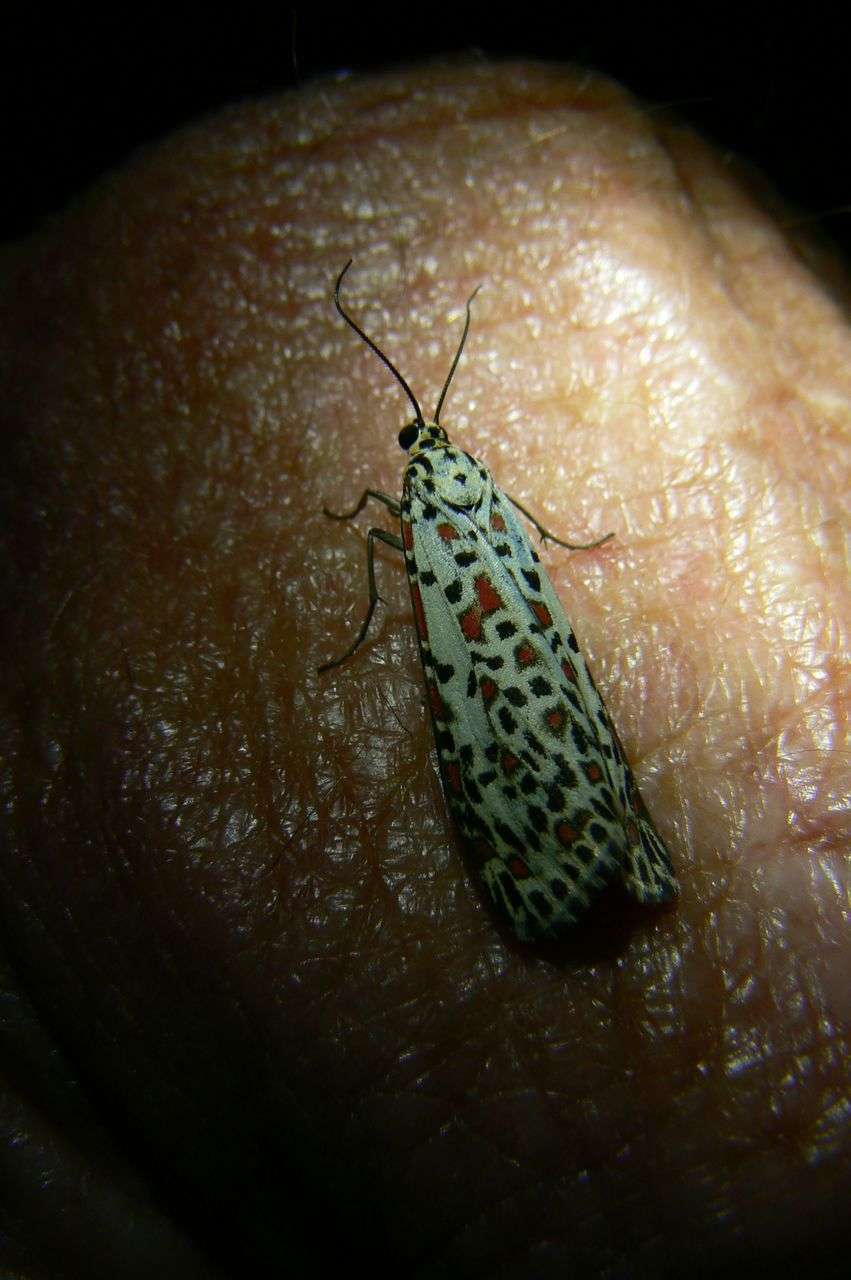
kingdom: Animalia
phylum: Arthropoda
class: Insecta
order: Lepidoptera
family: Erebidae
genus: Utetheisa
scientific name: Utetheisa pulchelloides
